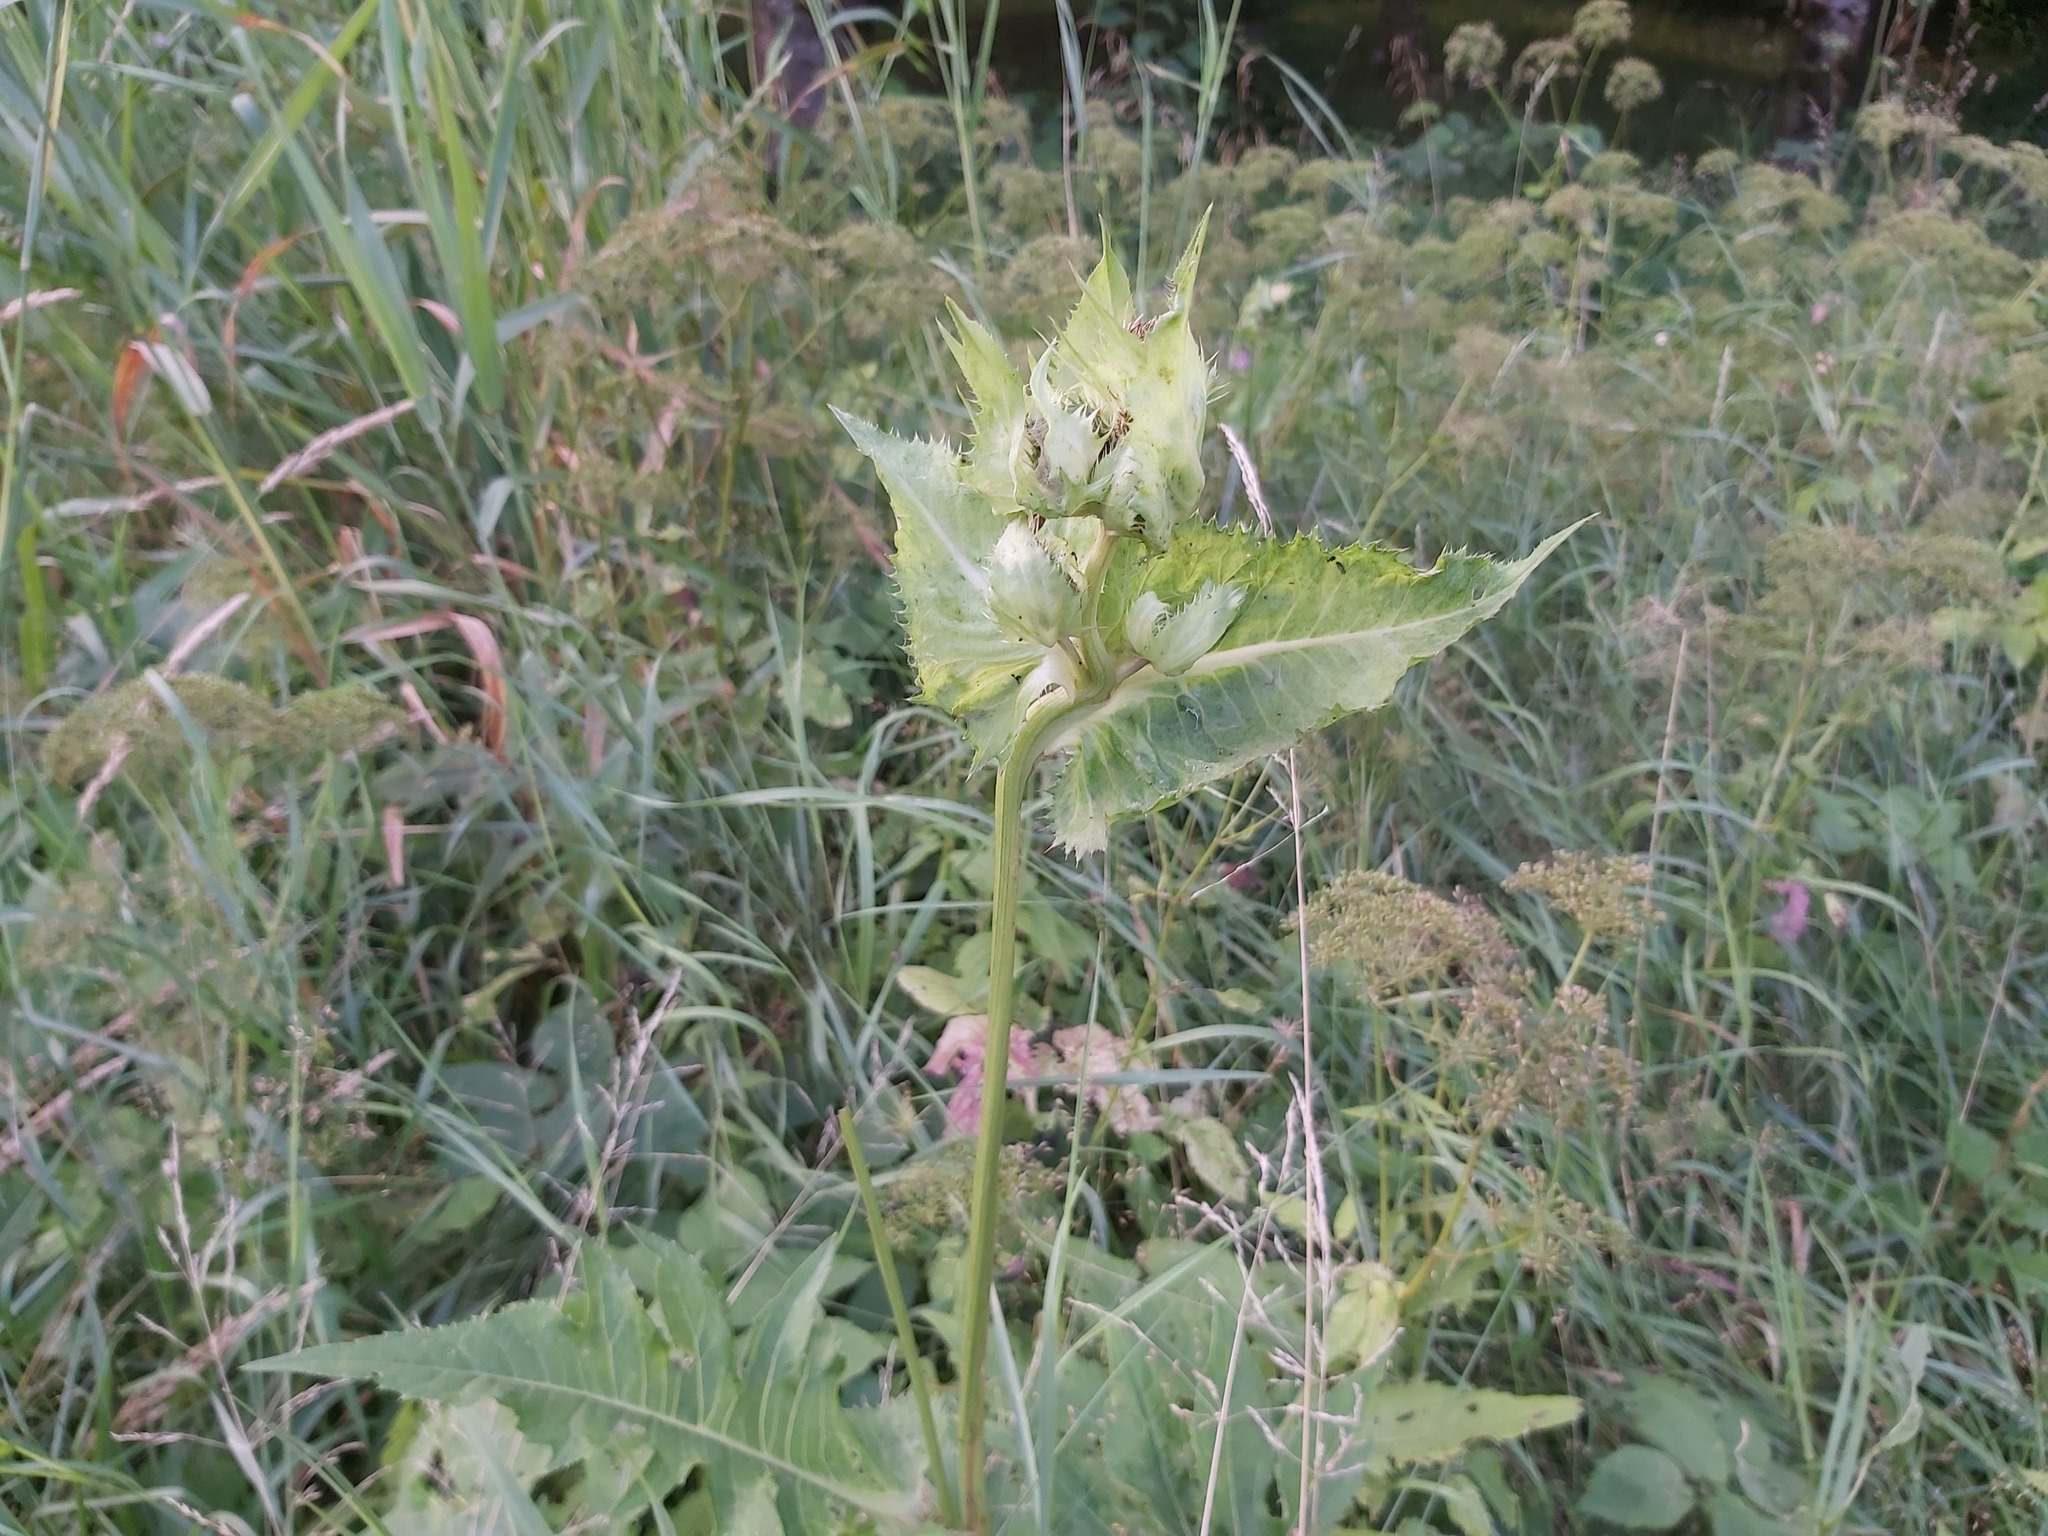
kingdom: Plantae
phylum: Tracheophyta
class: Magnoliopsida
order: Asterales
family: Asteraceae
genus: Cirsium
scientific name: Cirsium oleraceum
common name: Cabbage thistle
